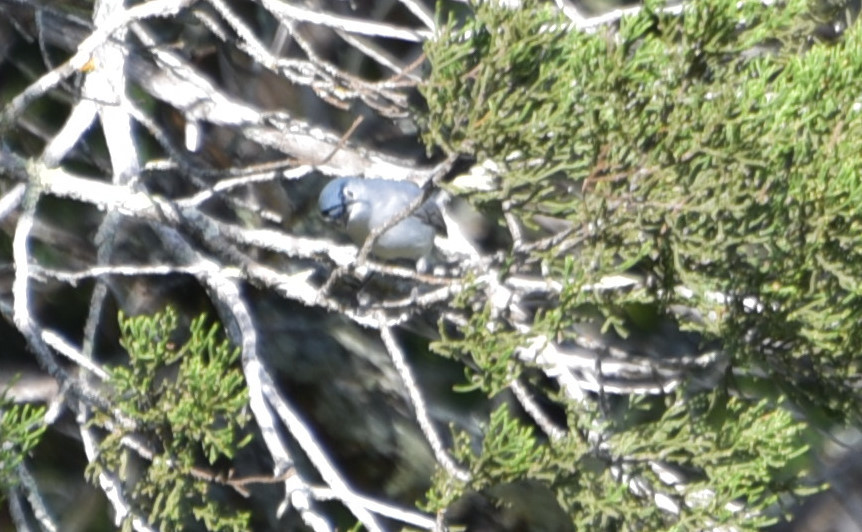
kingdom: Animalia
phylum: Chordata
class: Aves
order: Passeriformes
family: Polioptilidae
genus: Polioptila
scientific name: Polioptila caerulea
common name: Blue-gray gnatcatcher
